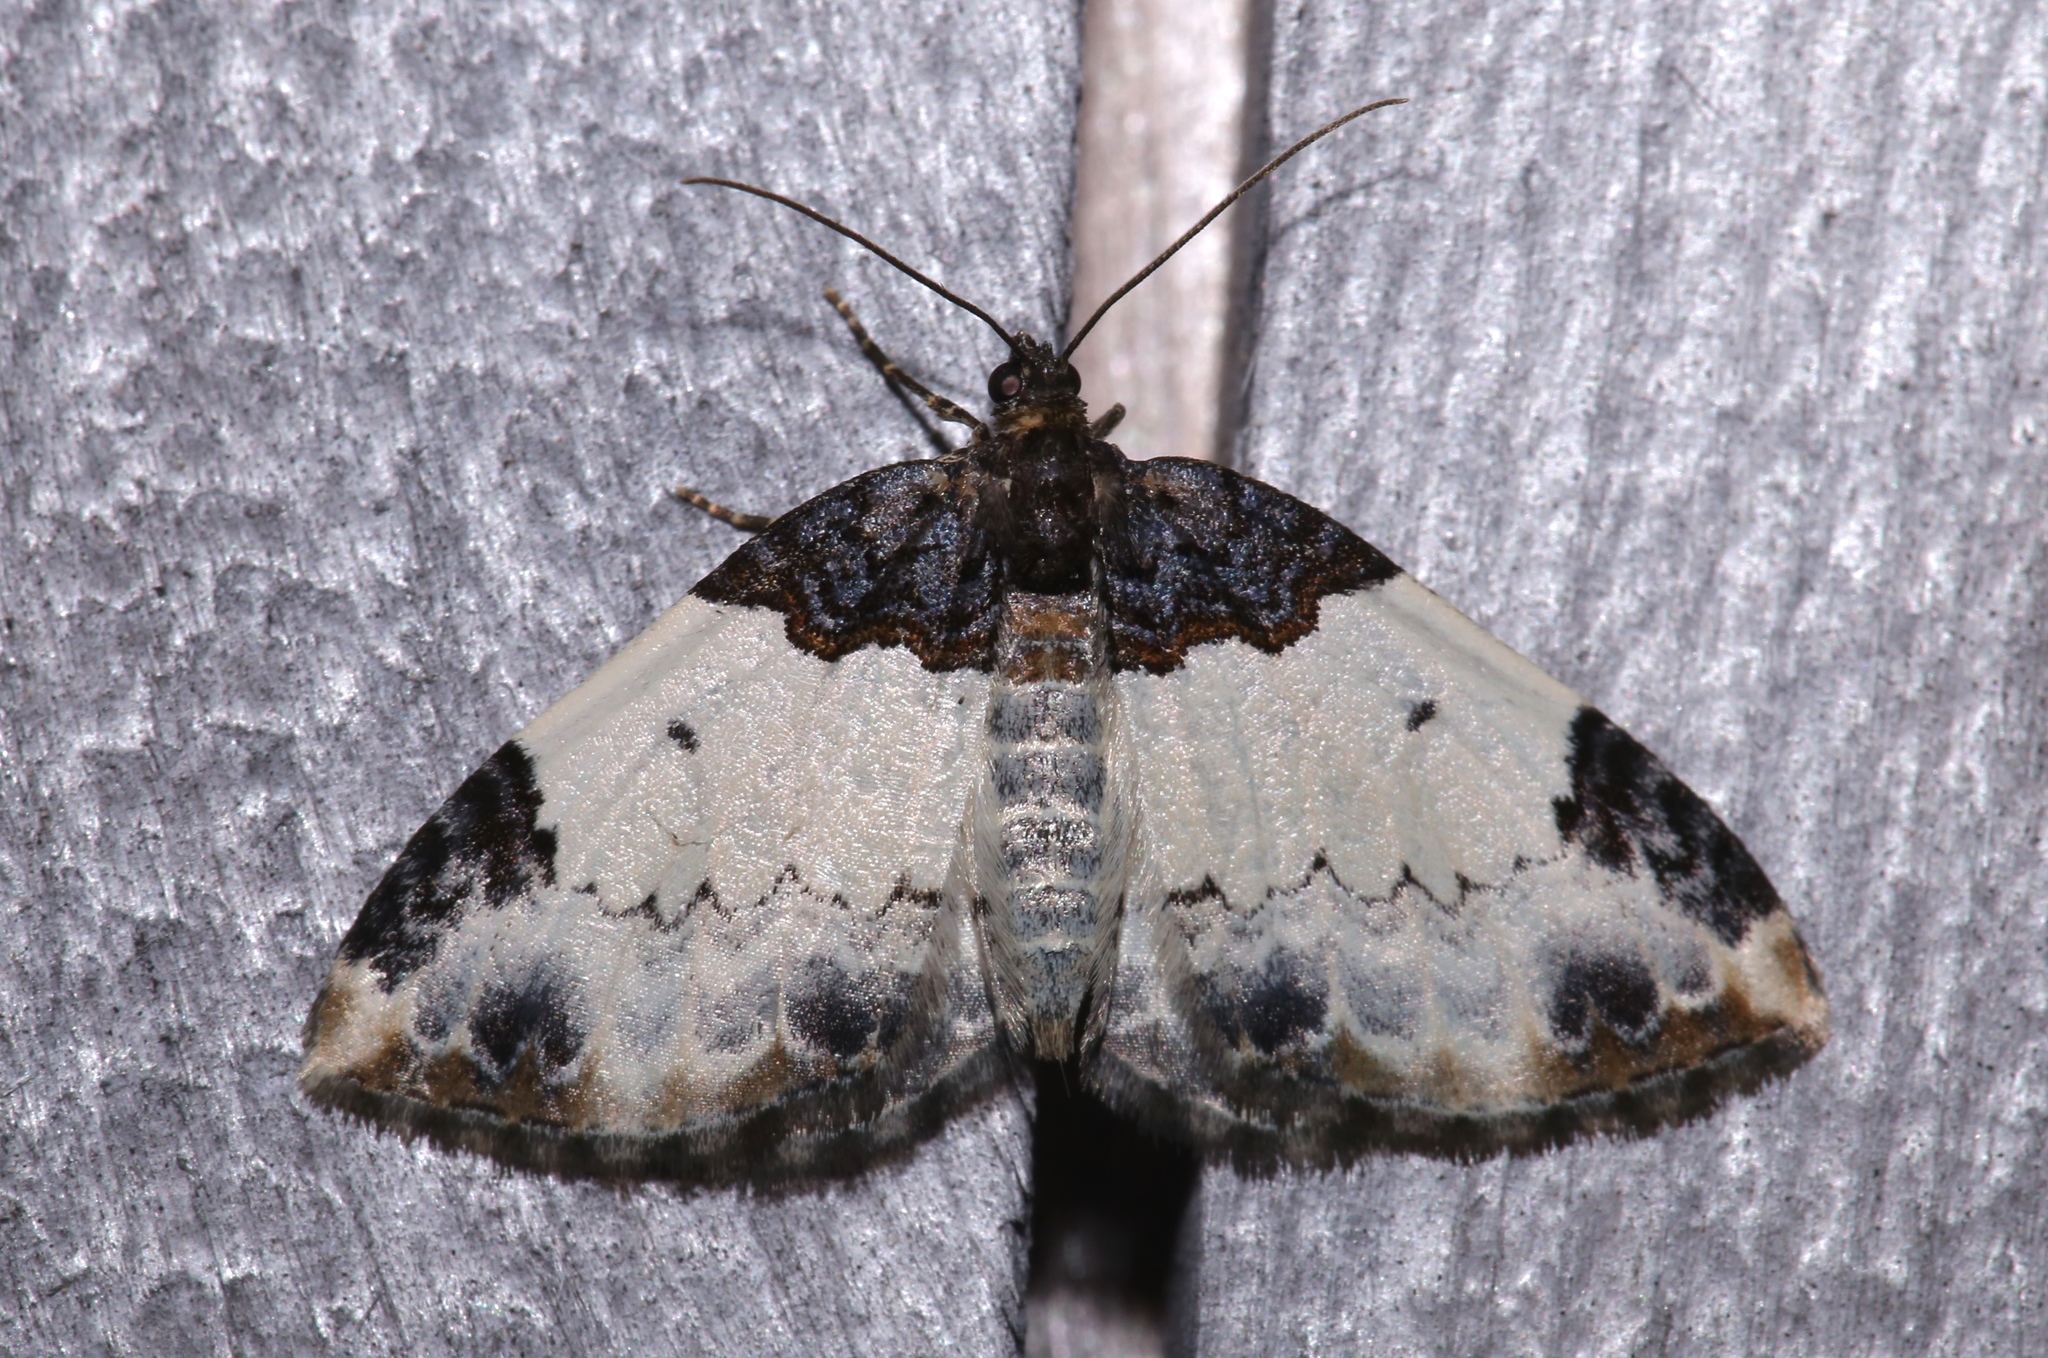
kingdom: Animalia
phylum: Arthropoda
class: Insecta
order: Lepidoptera
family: Geometridae
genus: Mesoleuca
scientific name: Mesoleuca ruficillata
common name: White-ribboned carpet moth
